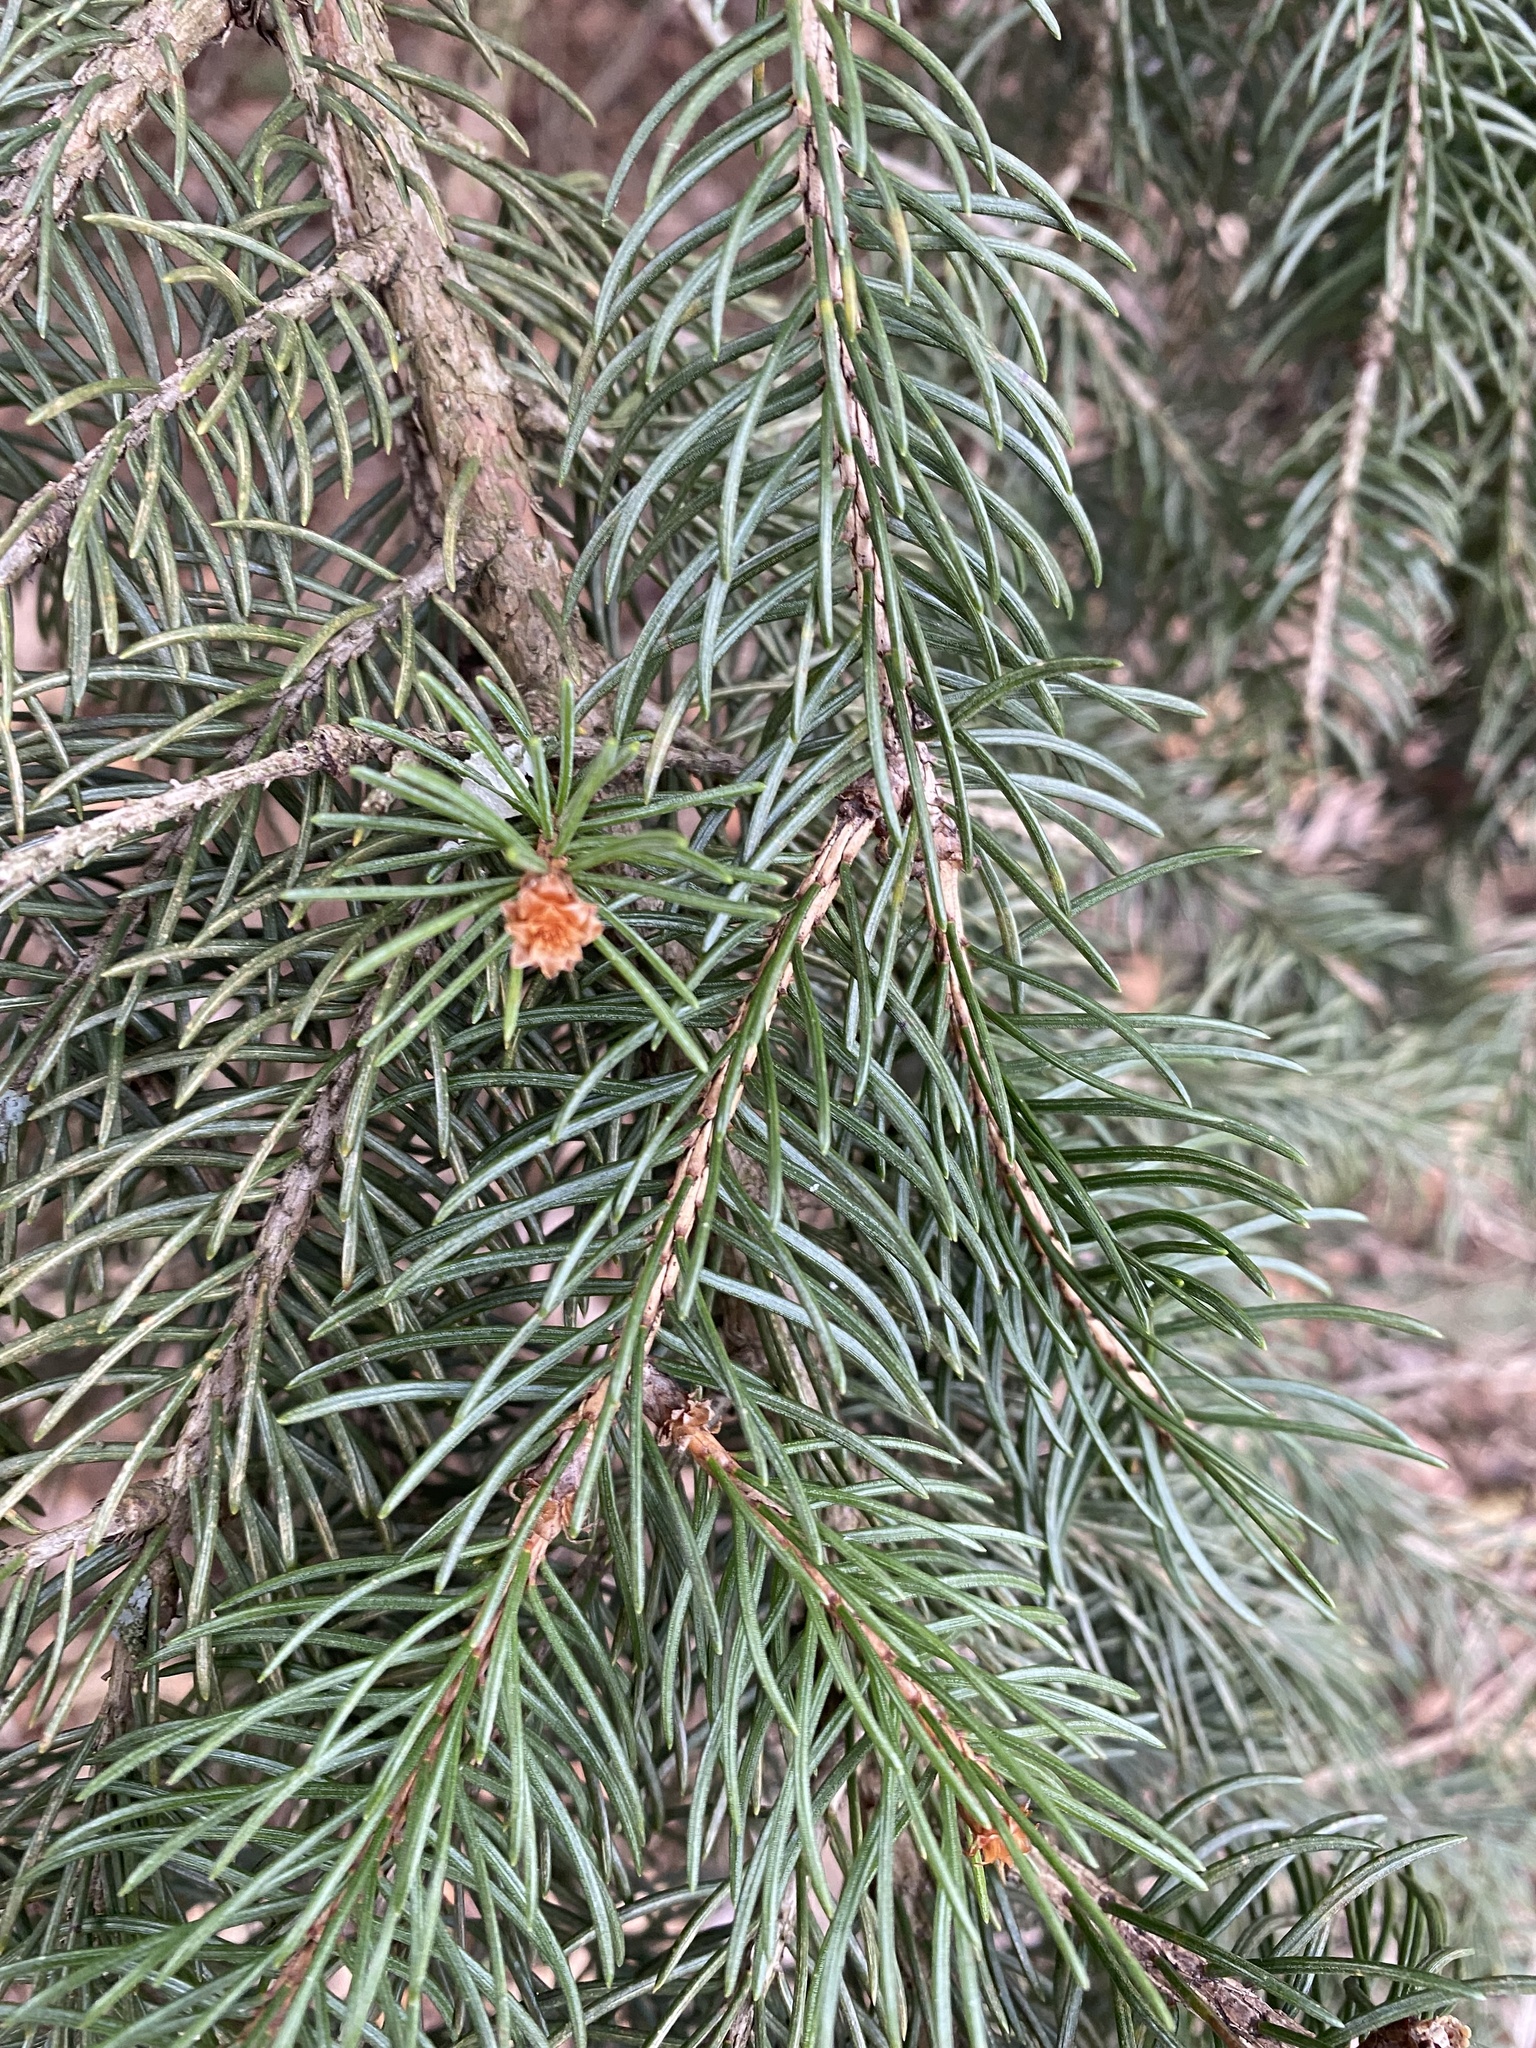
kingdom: Plantae
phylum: Tracheophyta
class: Pinopsida
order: Pinales
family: Pinaceae
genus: Picea
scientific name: Picea abies
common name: Norway spruce
